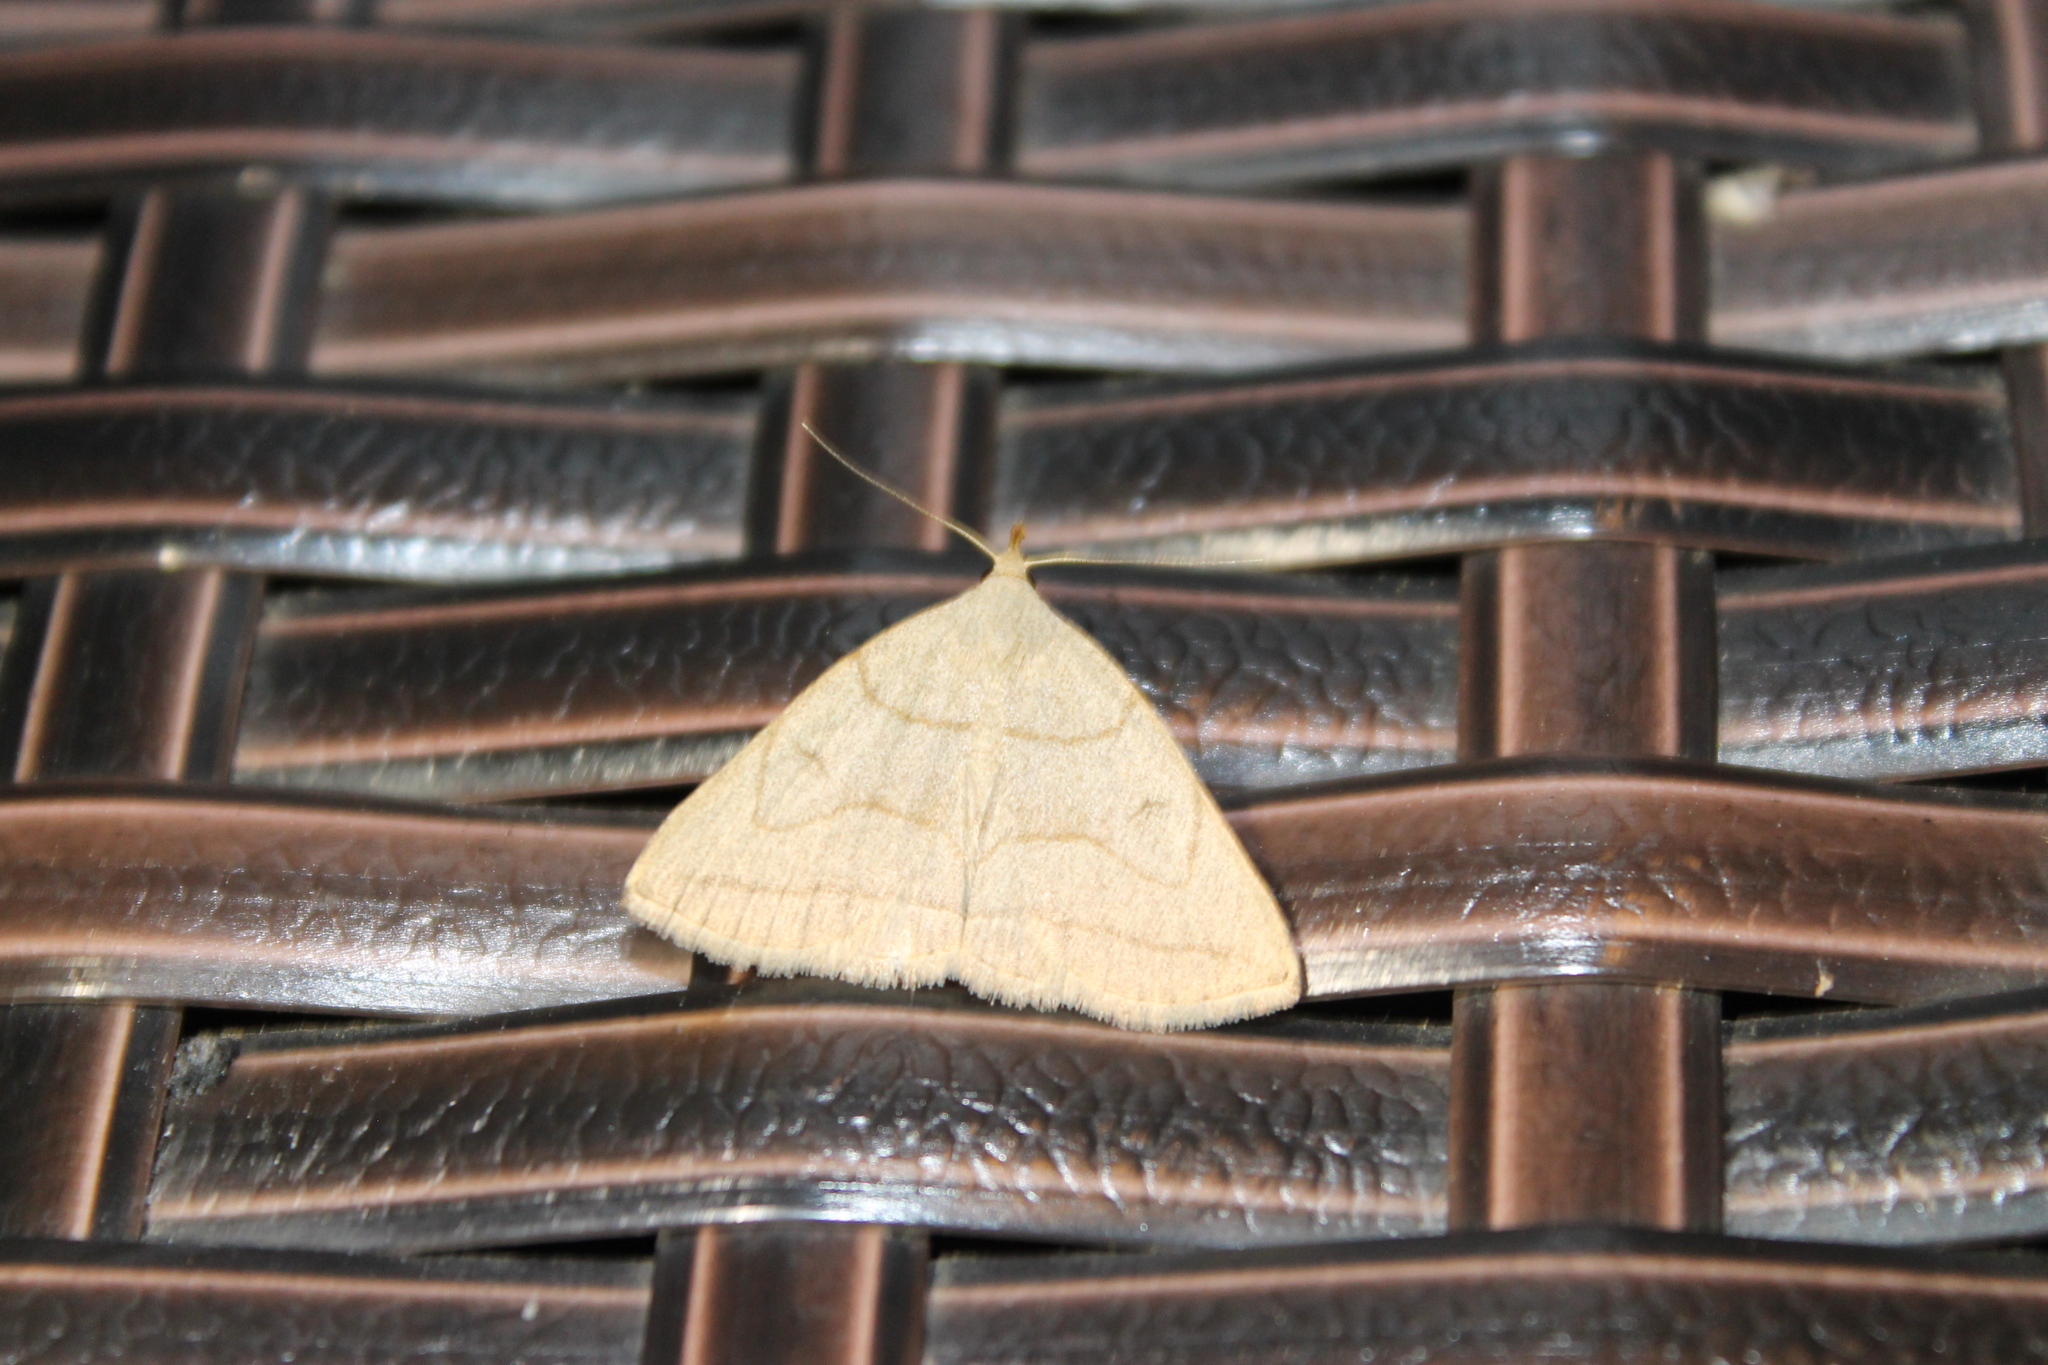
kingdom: Animalia
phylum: Arthropoda
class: Insecta
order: Lepidoptera
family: Erebidae
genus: Zanclognatha
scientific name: Zanclognatha pedipilalis
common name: Grayish fan-foot
